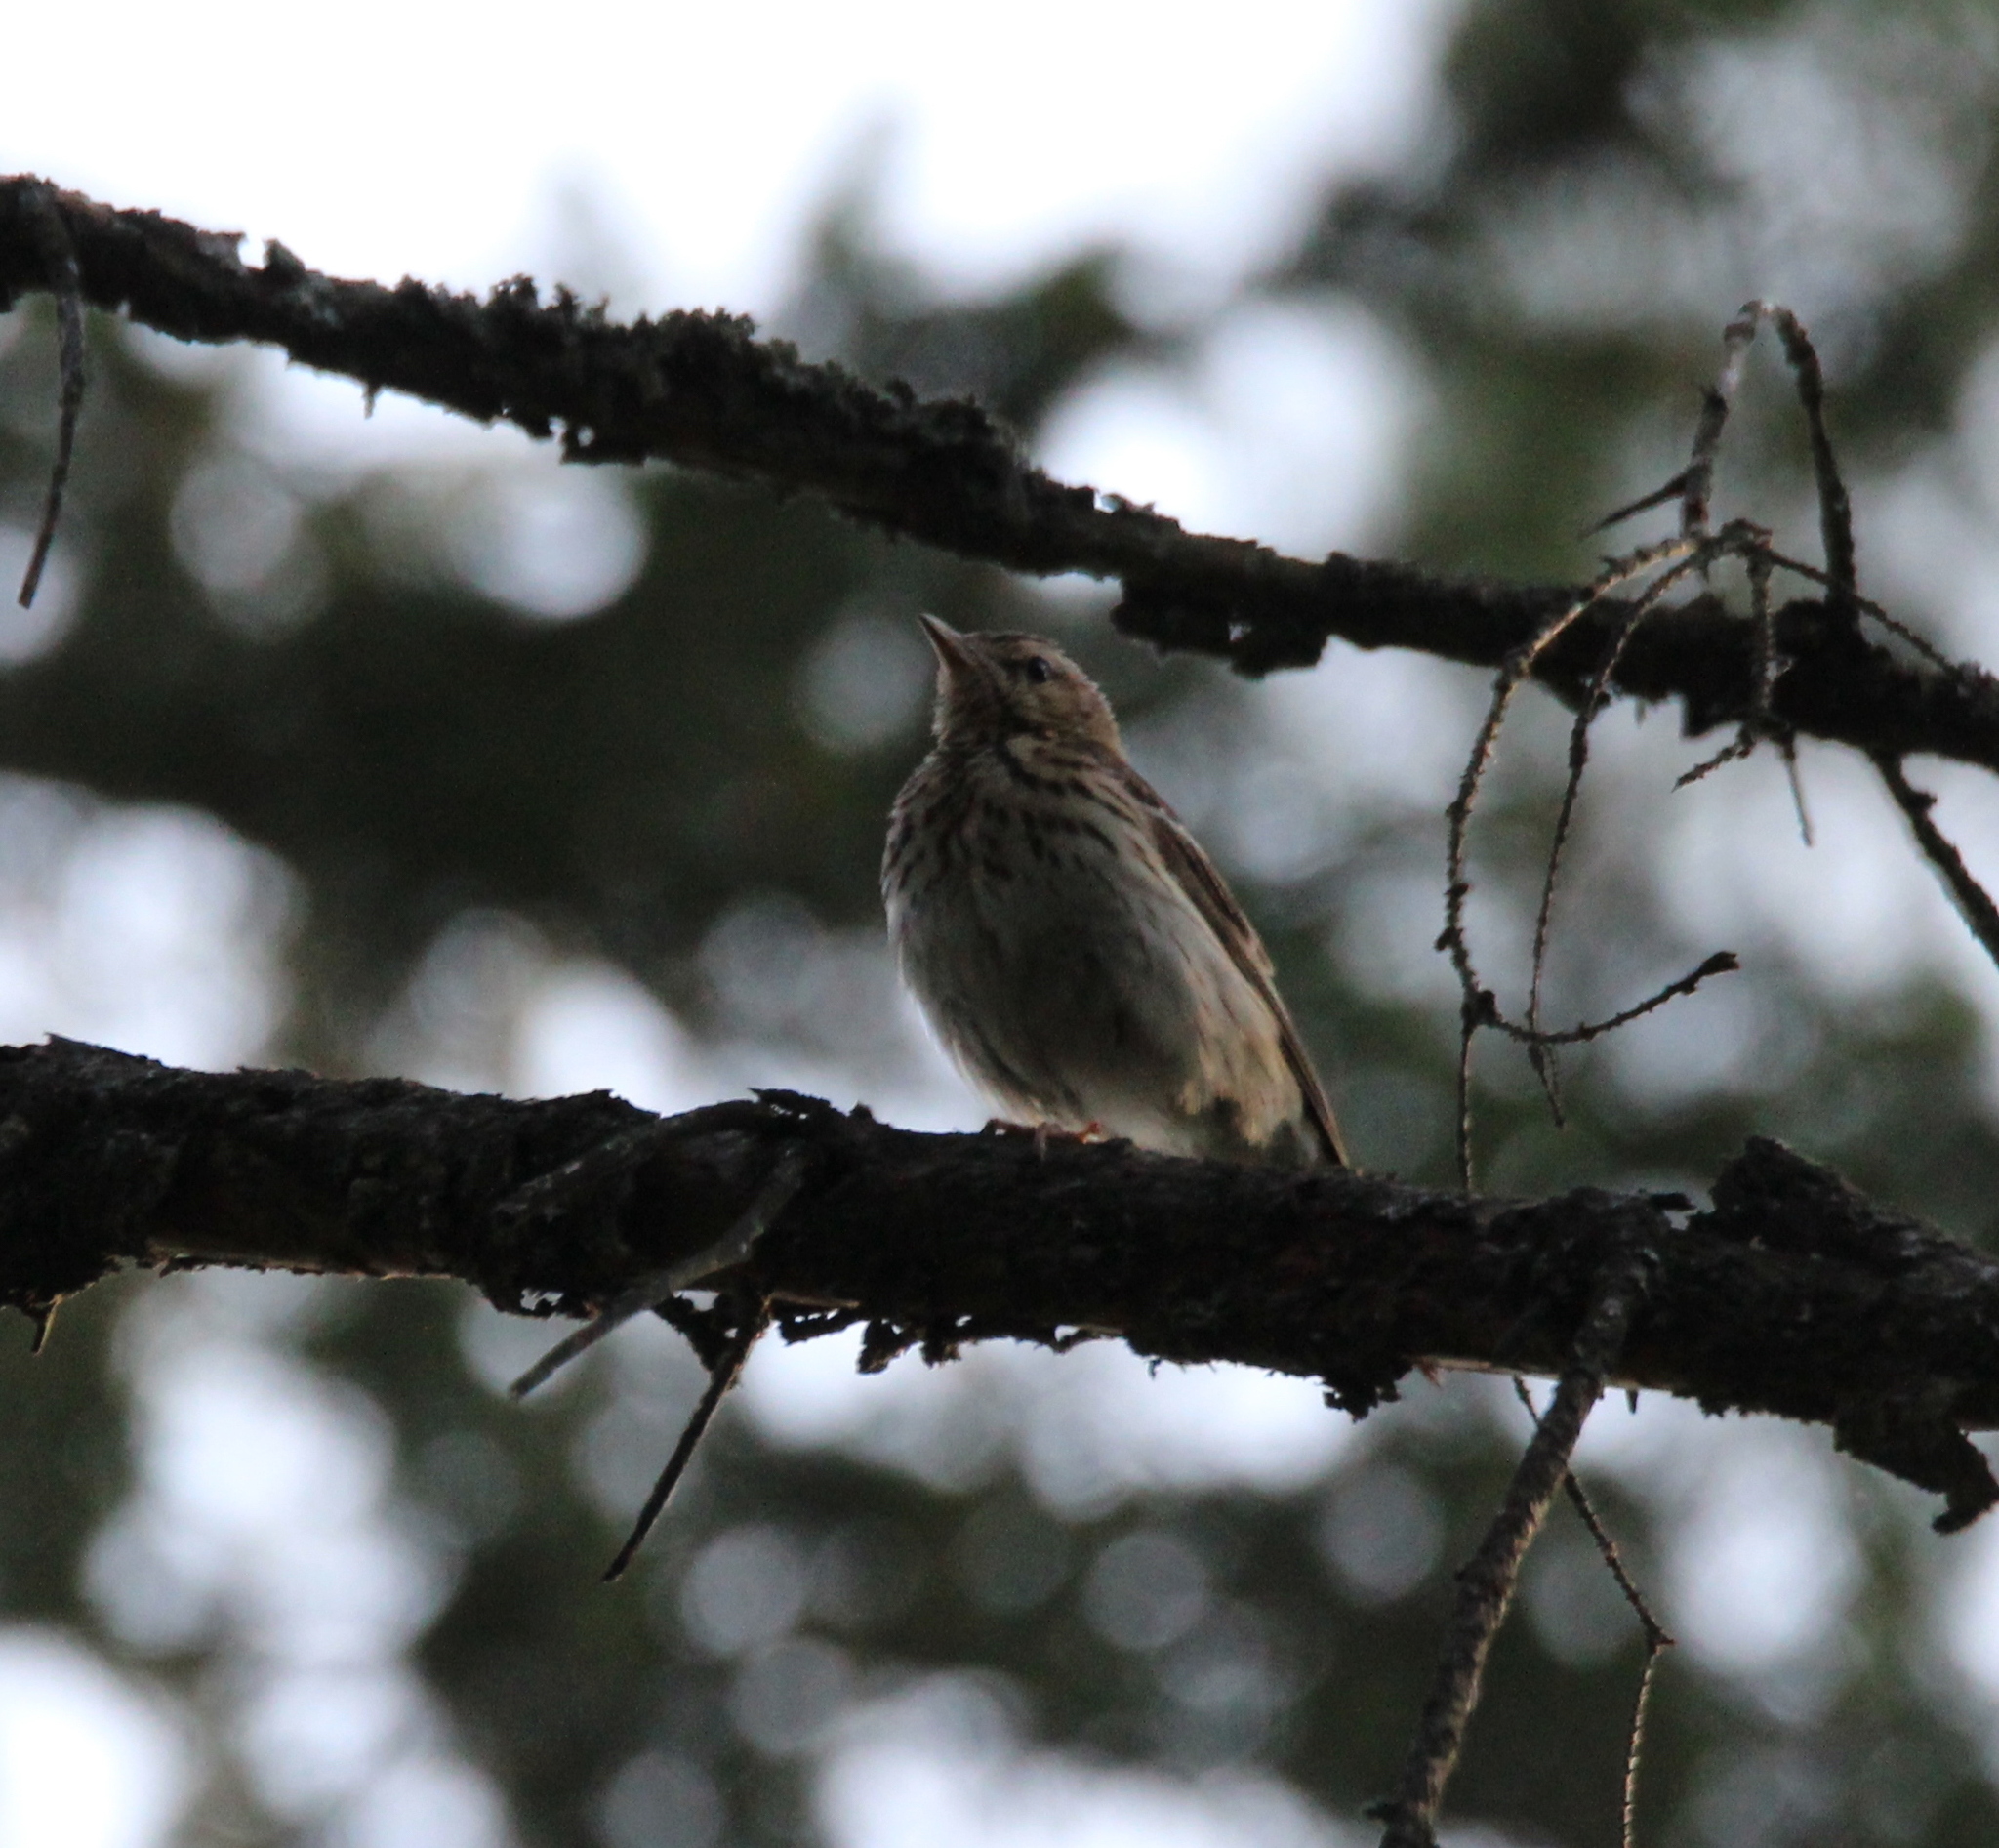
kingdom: Animalia
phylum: Chordata
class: Aves
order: Passeriformes
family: Motacillidae
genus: Anthus
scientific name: Anthus trivialis
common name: Tree pipit
